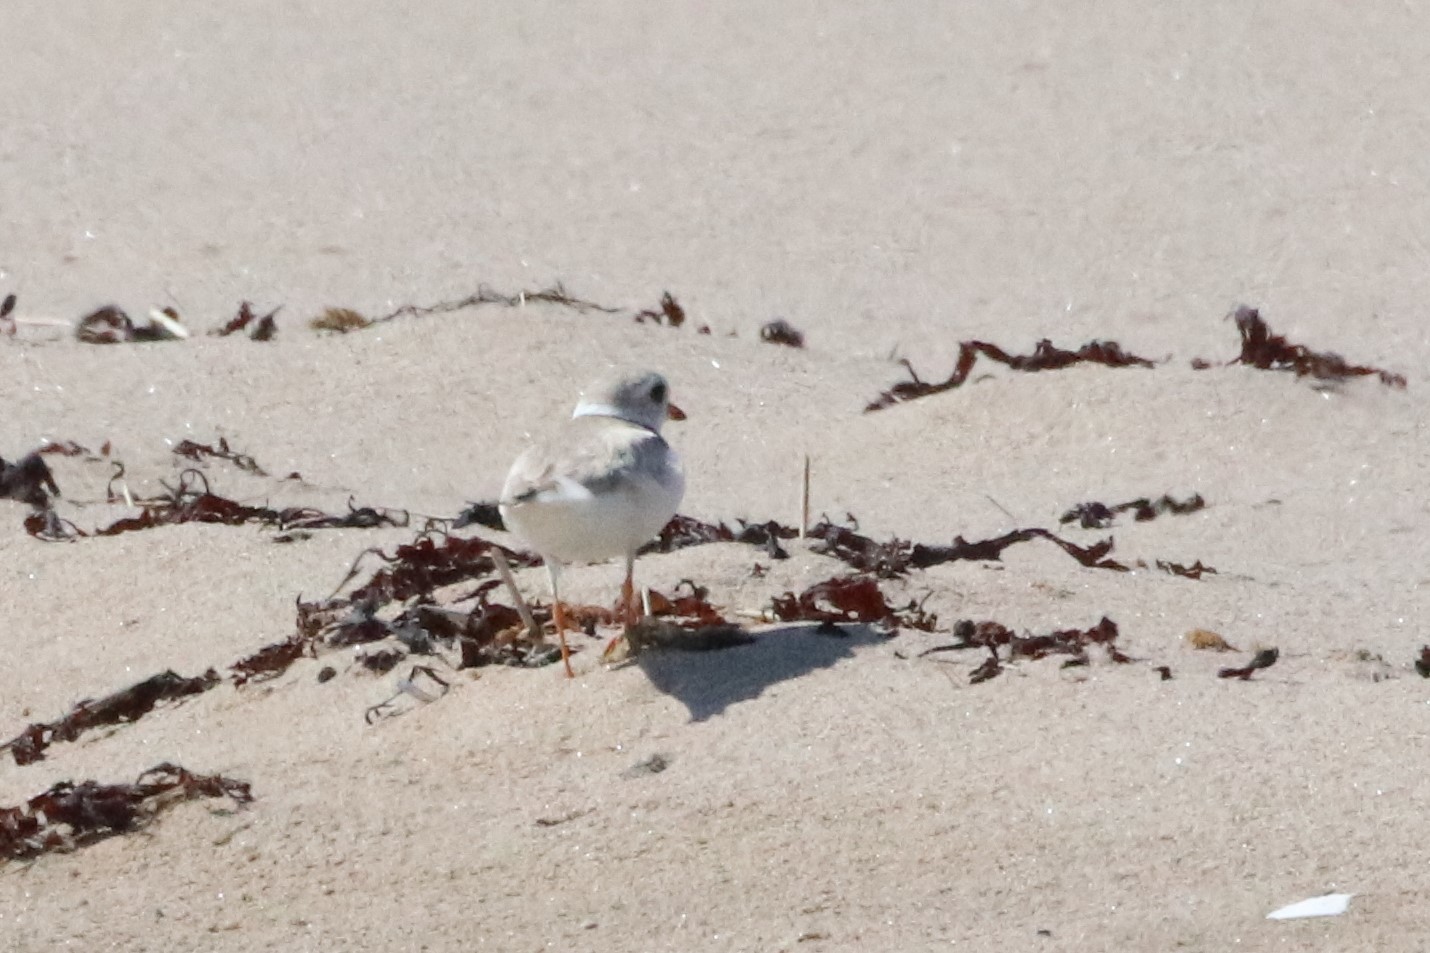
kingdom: Animalia
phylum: Chordata
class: Aves
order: Charadriiformes
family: Charadriidae
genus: Charadrius
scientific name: Charadrius melodus
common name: Piping plover
